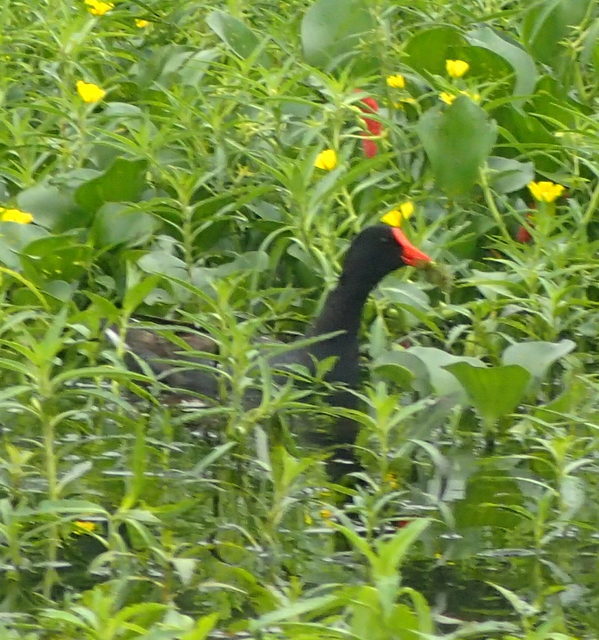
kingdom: Animalia
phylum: Chordata
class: Aves
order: Gruiformes
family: Rallidae
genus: Gallinula
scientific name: Gallinula chloropus
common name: Common moorhen
